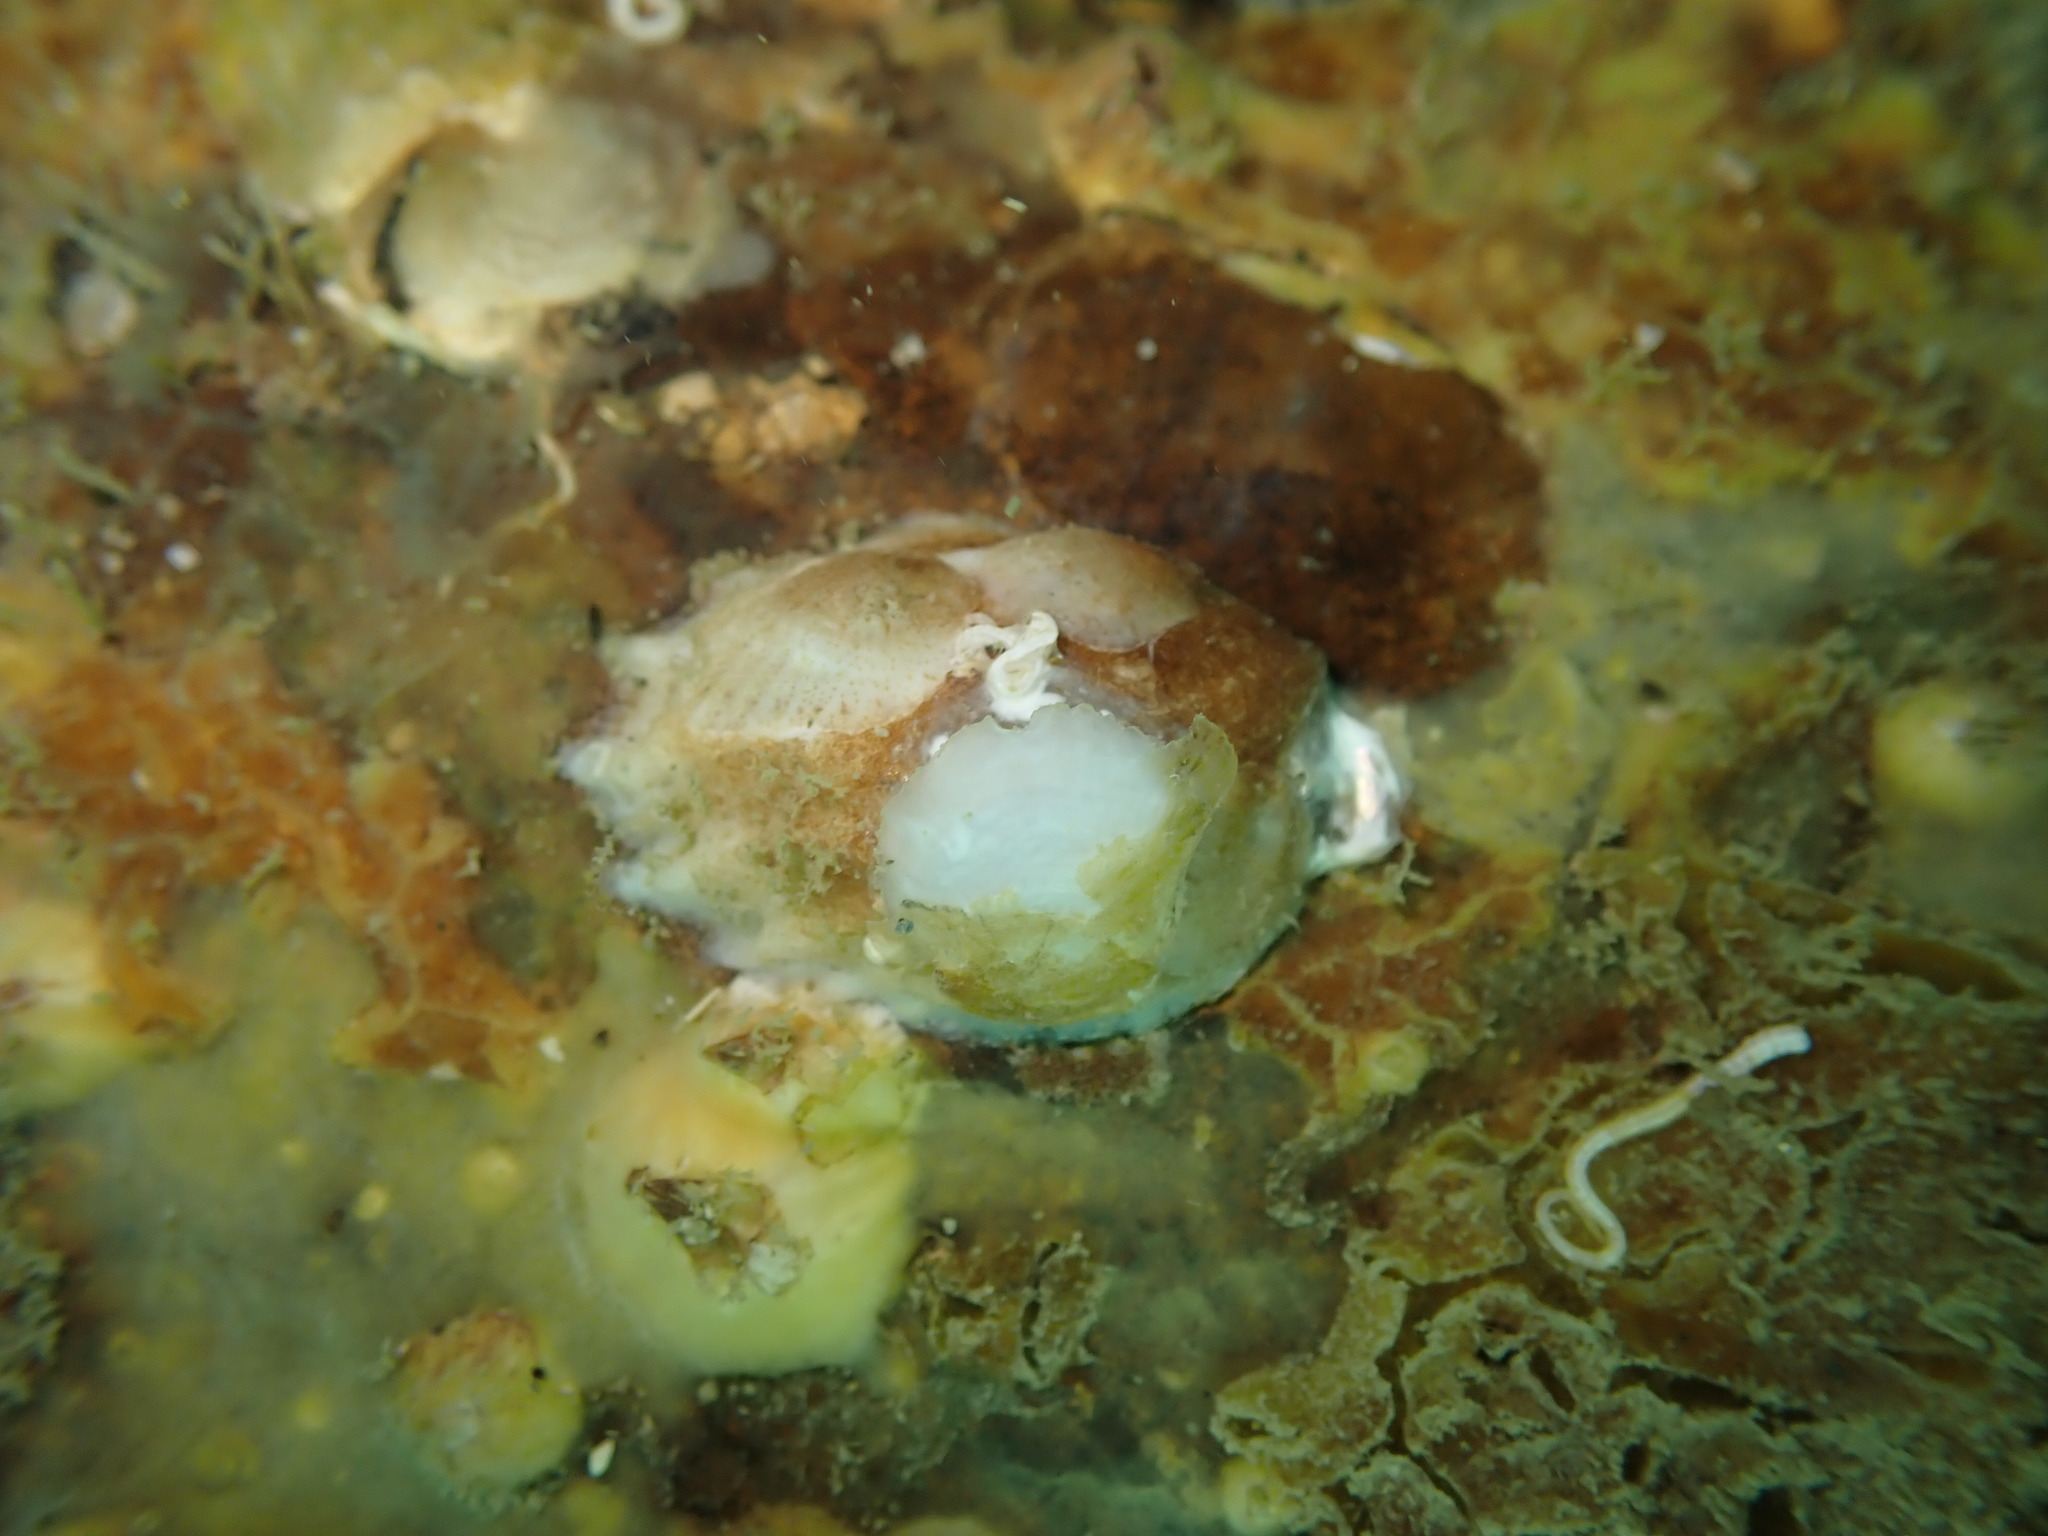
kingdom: Animalia
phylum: Mollusca
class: Gastropoda
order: Littorinimorpha
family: Calyptraeidae
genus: Maoricrypta
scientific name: Maoricrypta costata
